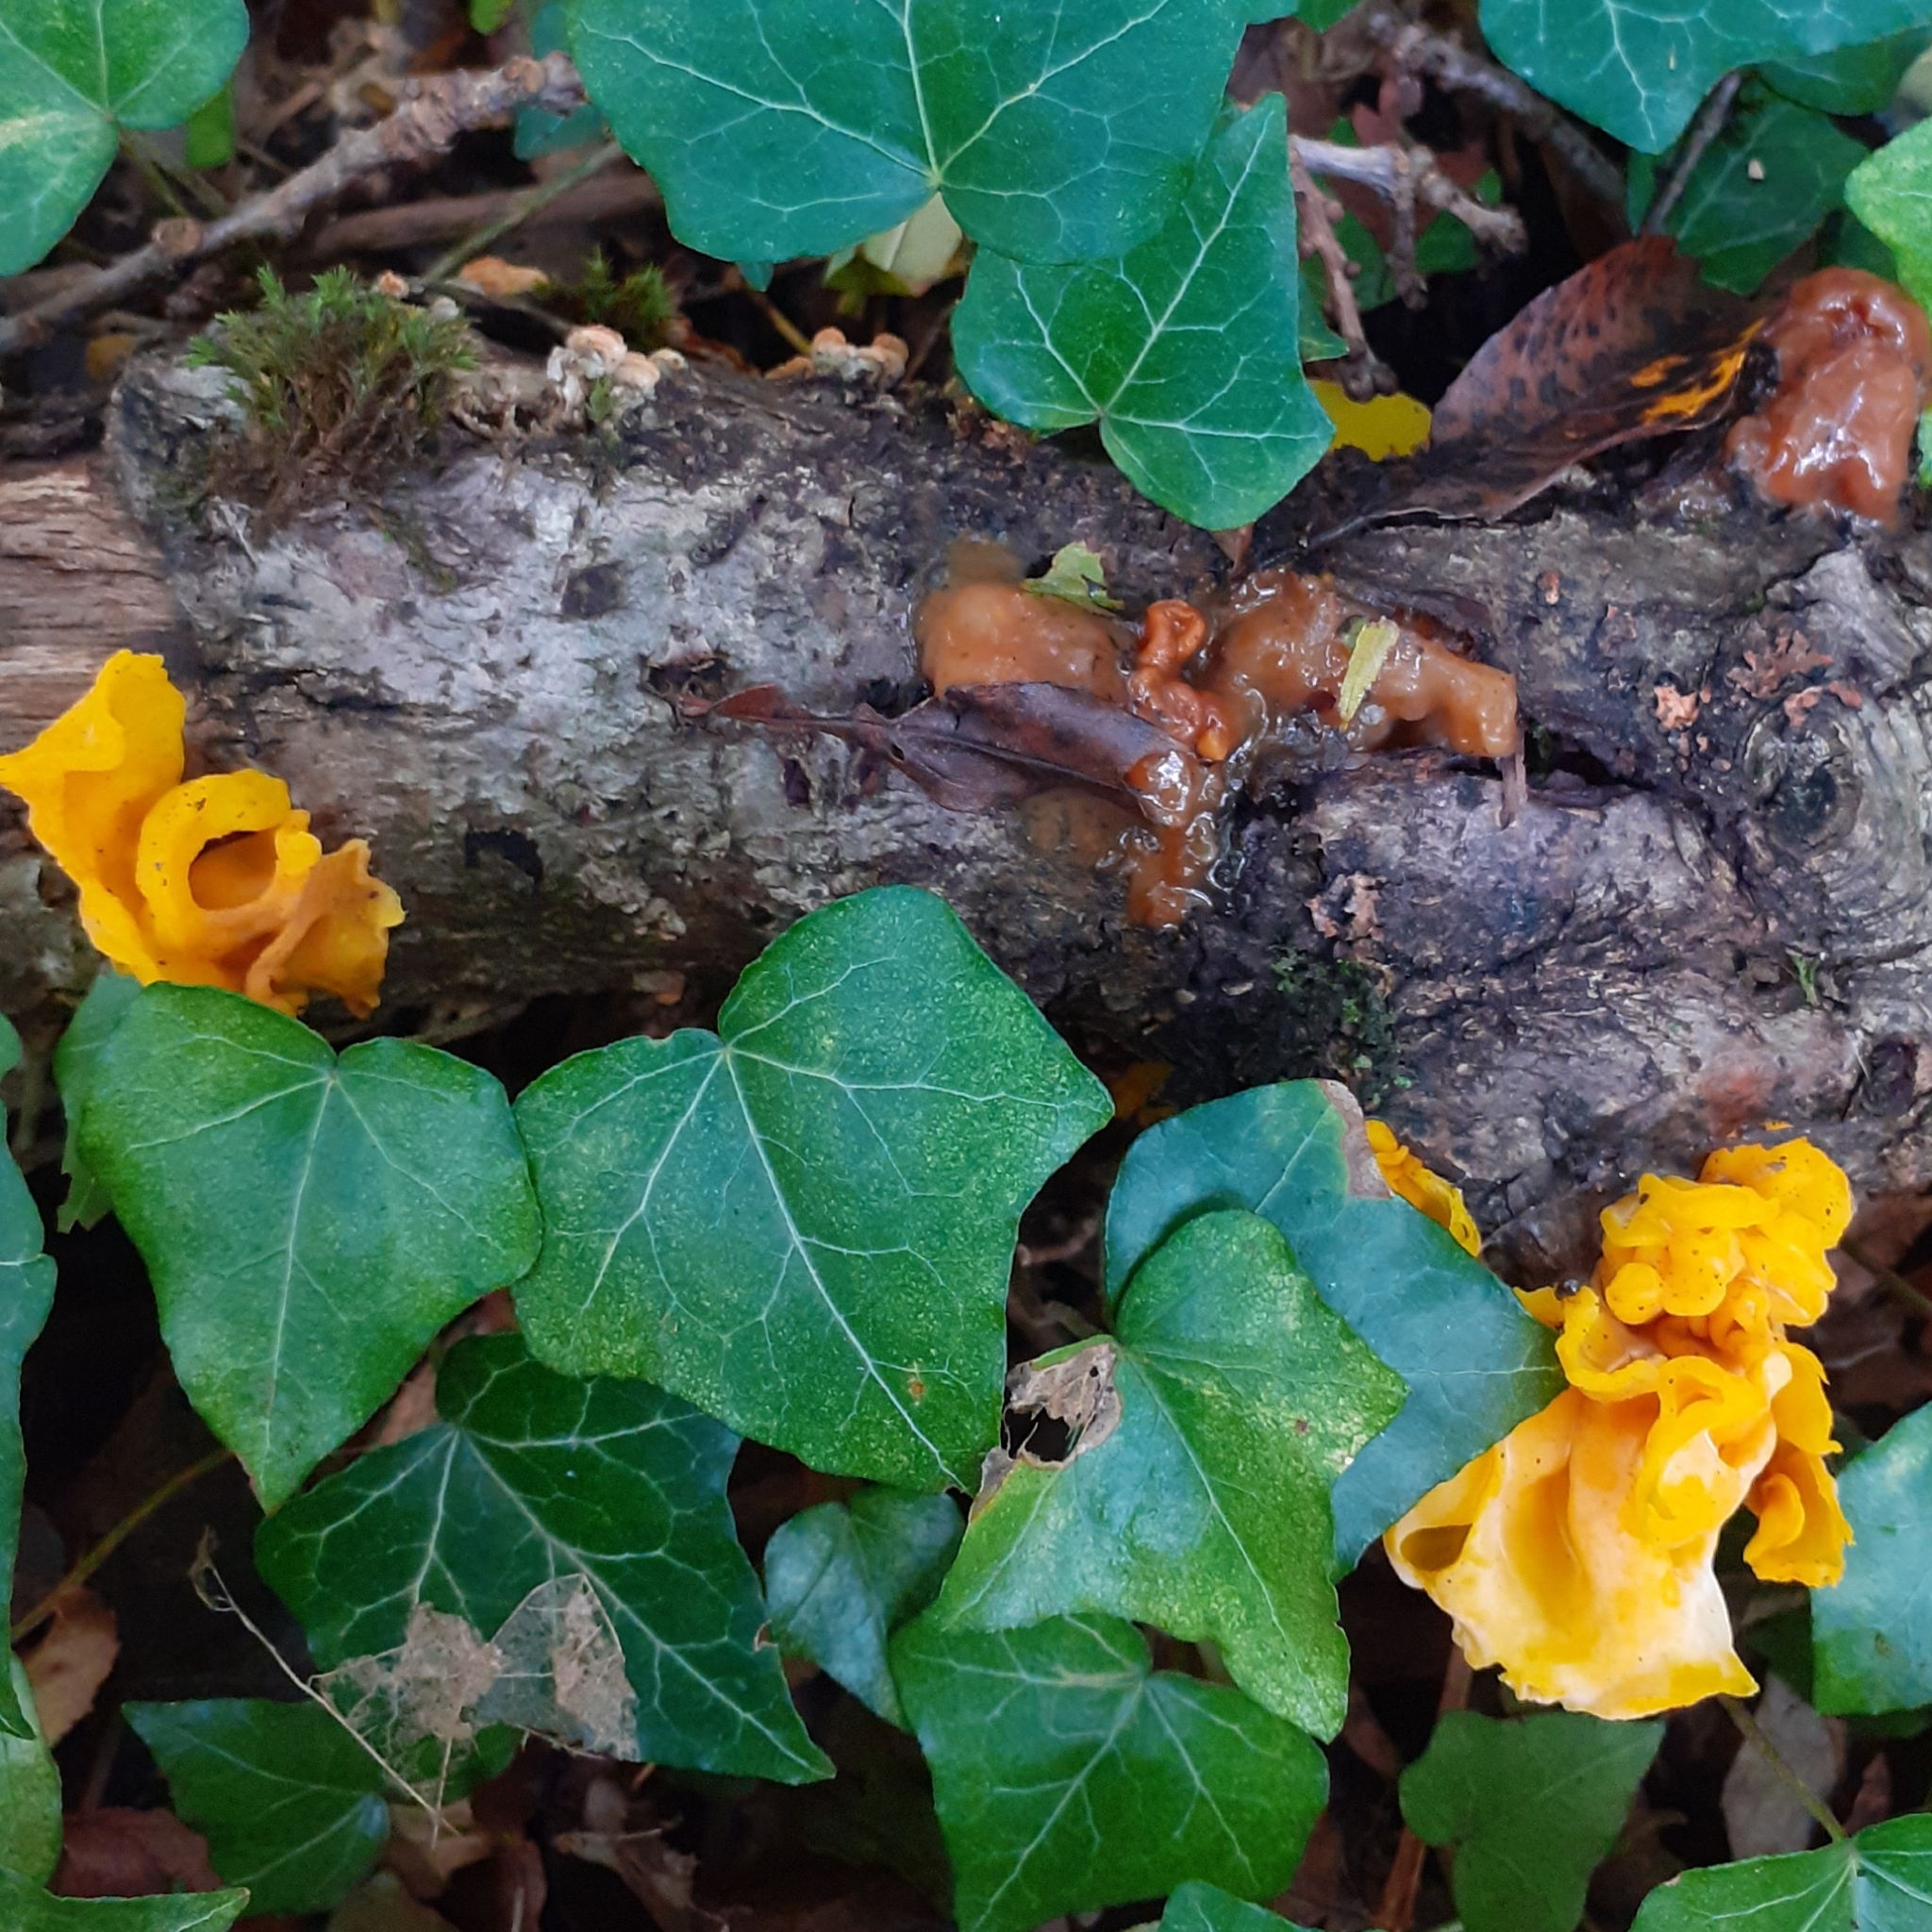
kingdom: Fungi
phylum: Basidiomycota
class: Tremellomycetes
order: Tremellales
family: Naemateliaceae
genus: Naematelia
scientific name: Naematelia aurantia
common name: Golden ear
